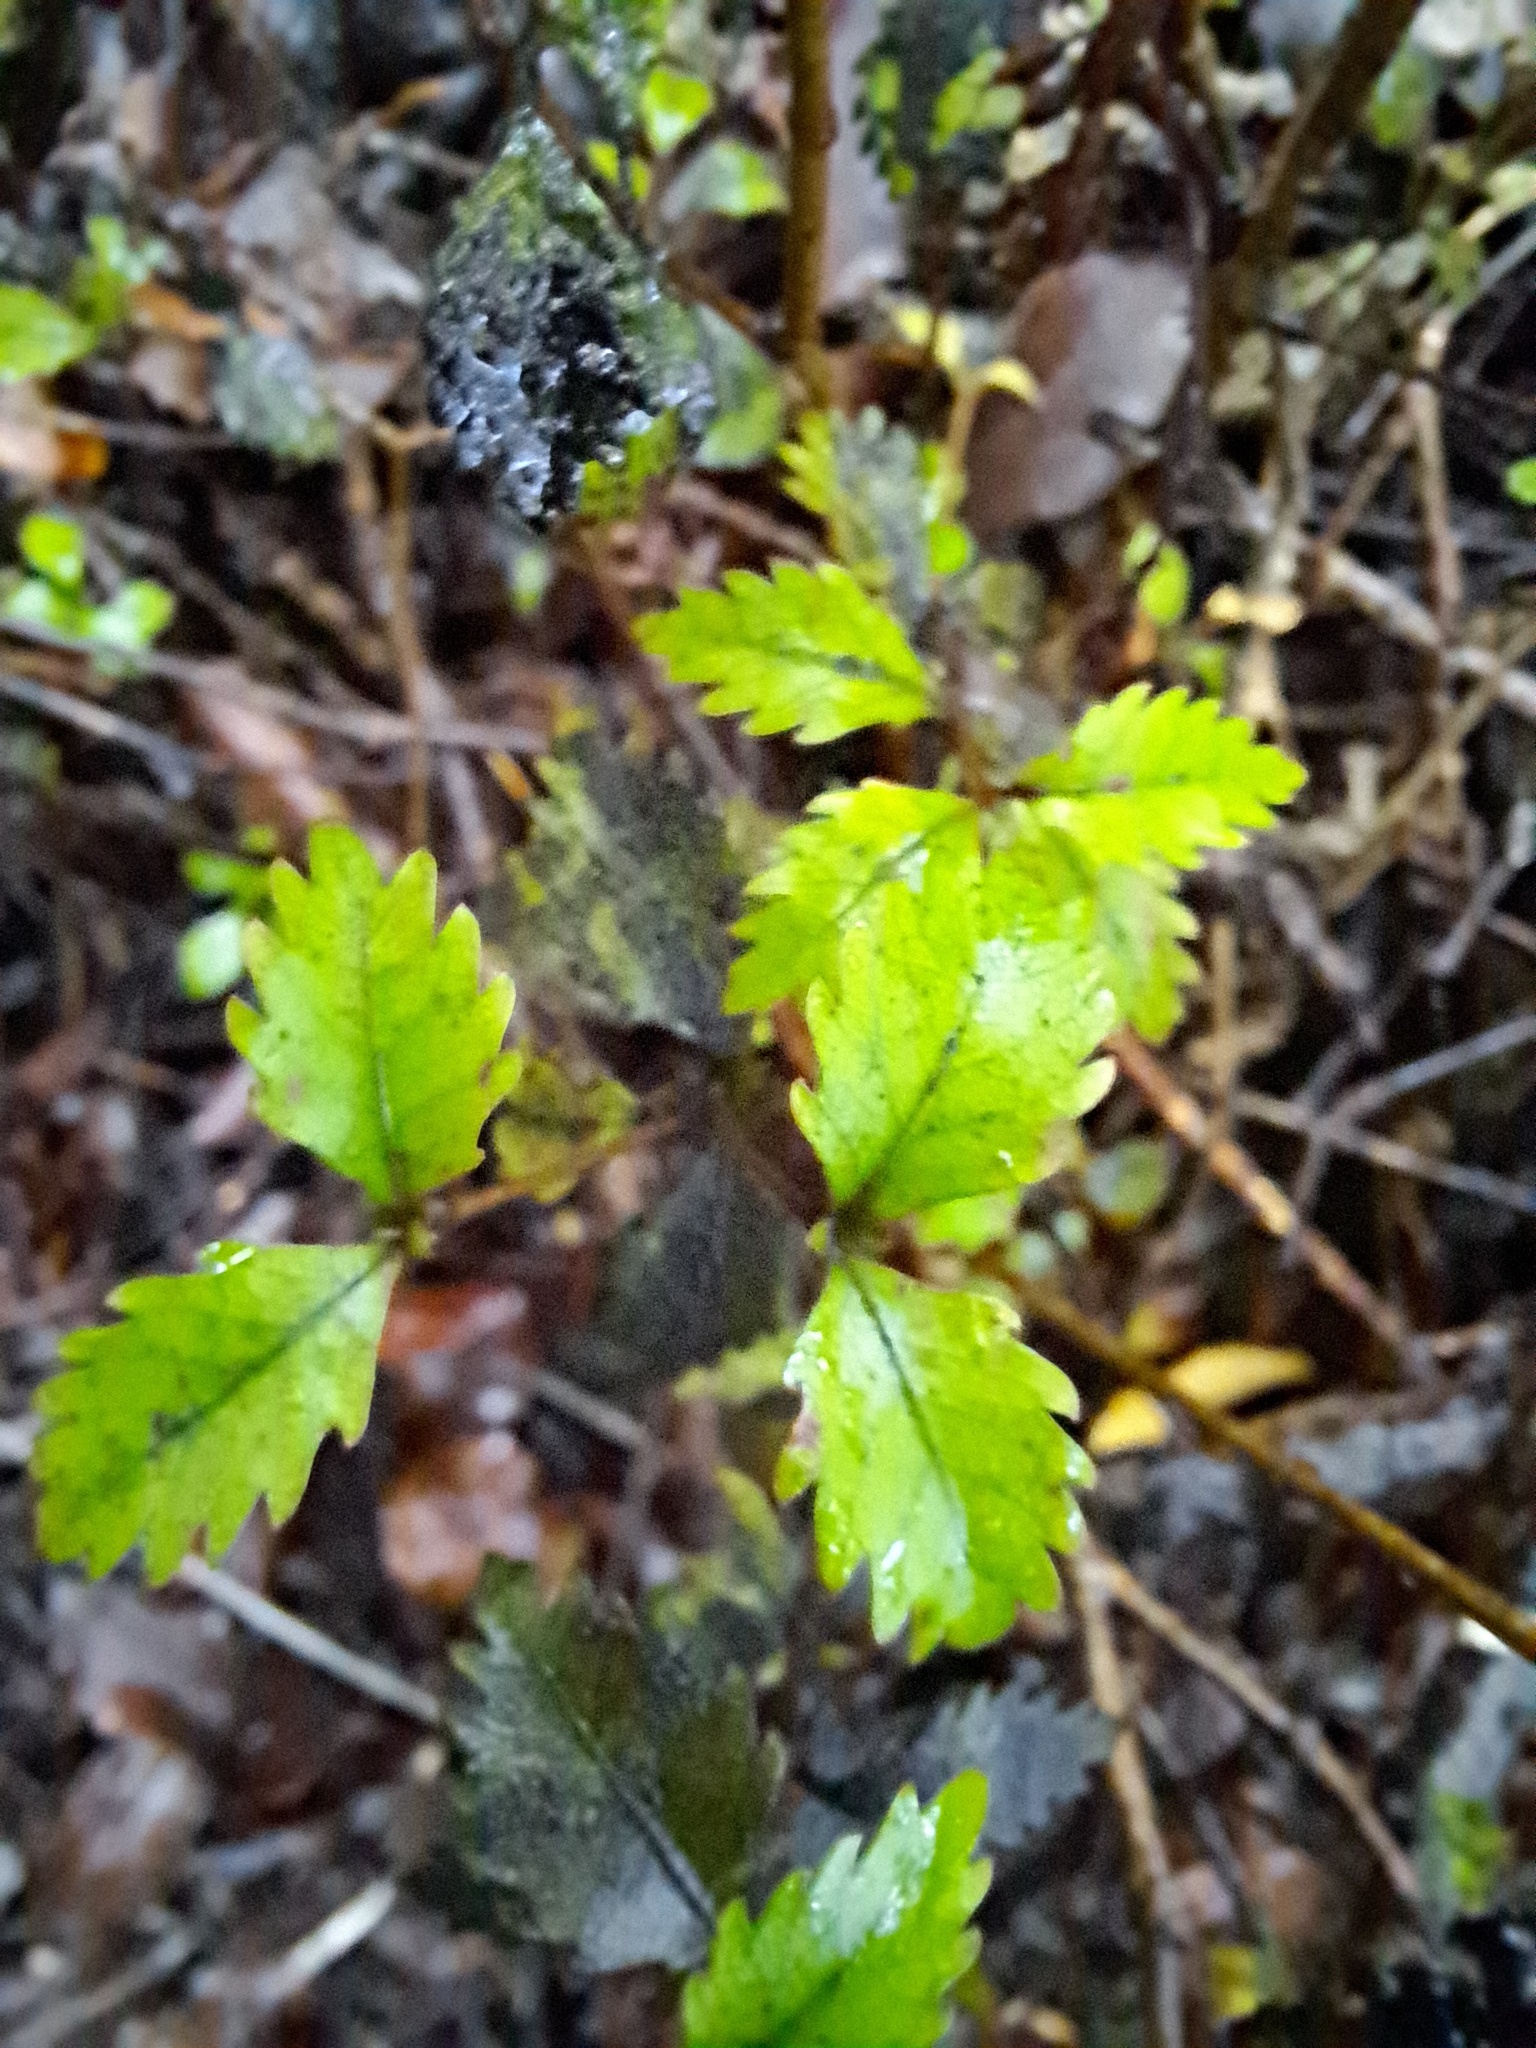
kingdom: Plantae
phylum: Tracheophyta
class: Magnoliopsida
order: Oxalidales
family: Cunoniaceae
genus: Pterophylla
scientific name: Pterophylla racemosa
